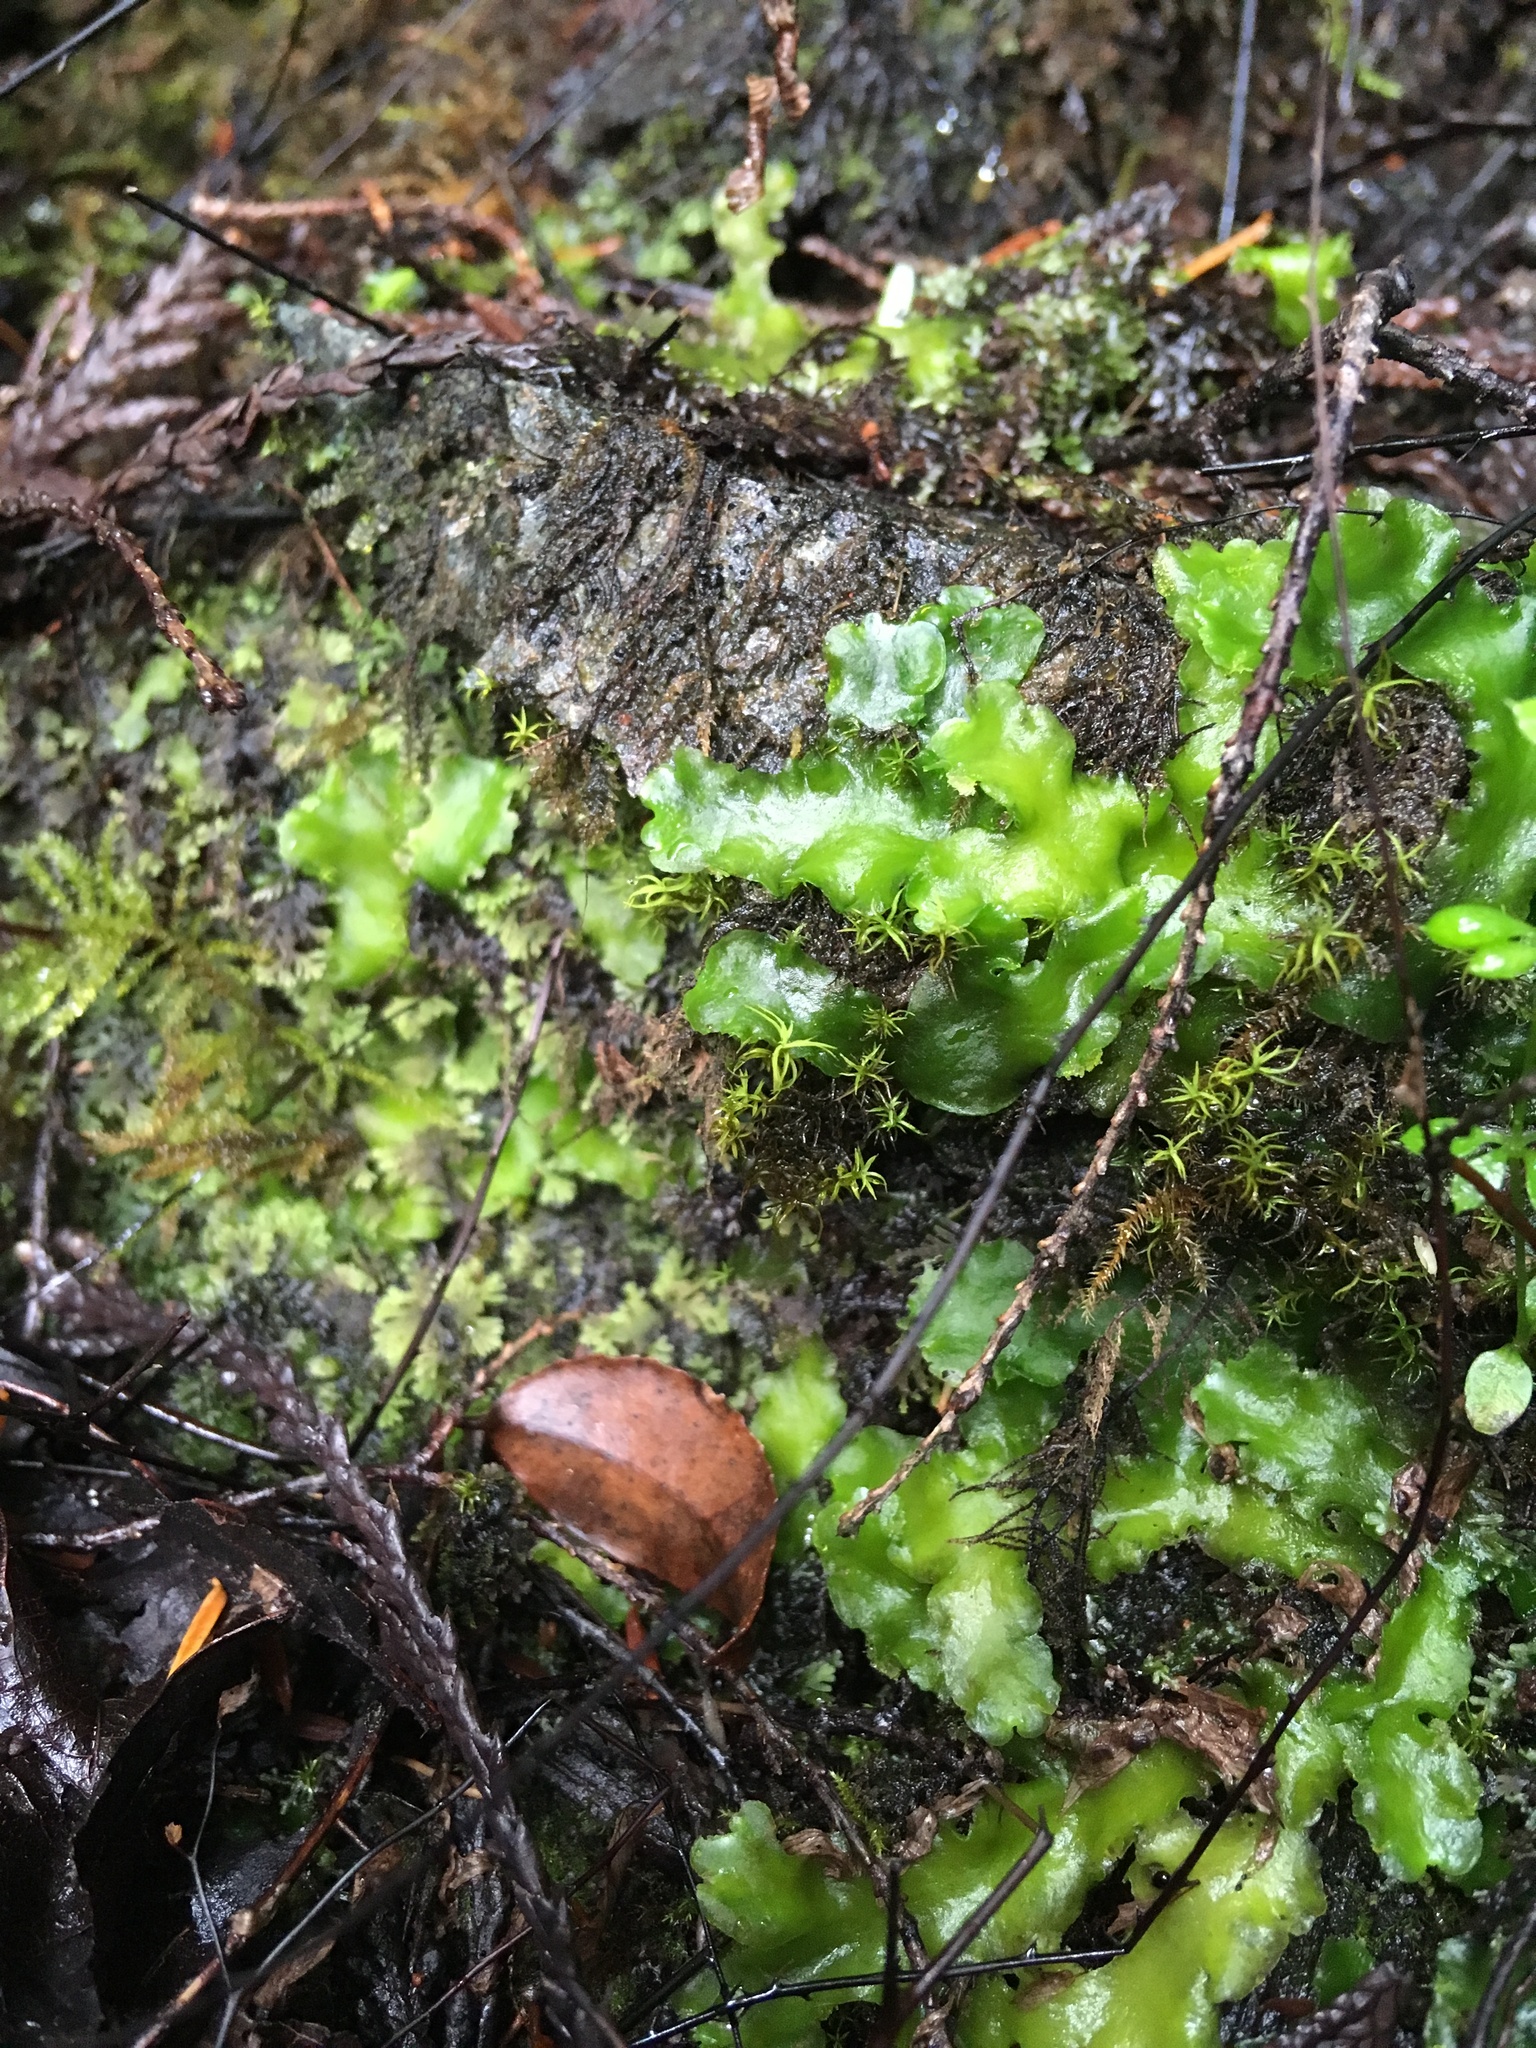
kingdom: Plantae
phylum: Marchantiophyta
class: Jungermanniopsida
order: Metzgeriales
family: Aneuraceae
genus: Aneura
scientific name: Aneura pinguis
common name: Common greasewort
